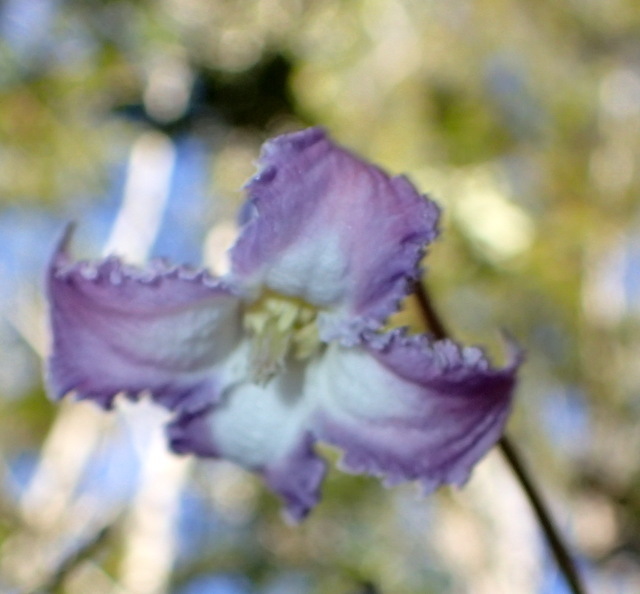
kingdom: Plantae
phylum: Tracheophyta
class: Magnoliopsida
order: Ranunculales
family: Ranunculaceae
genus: Clematis
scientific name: Clematis crispa
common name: Curly clematis
